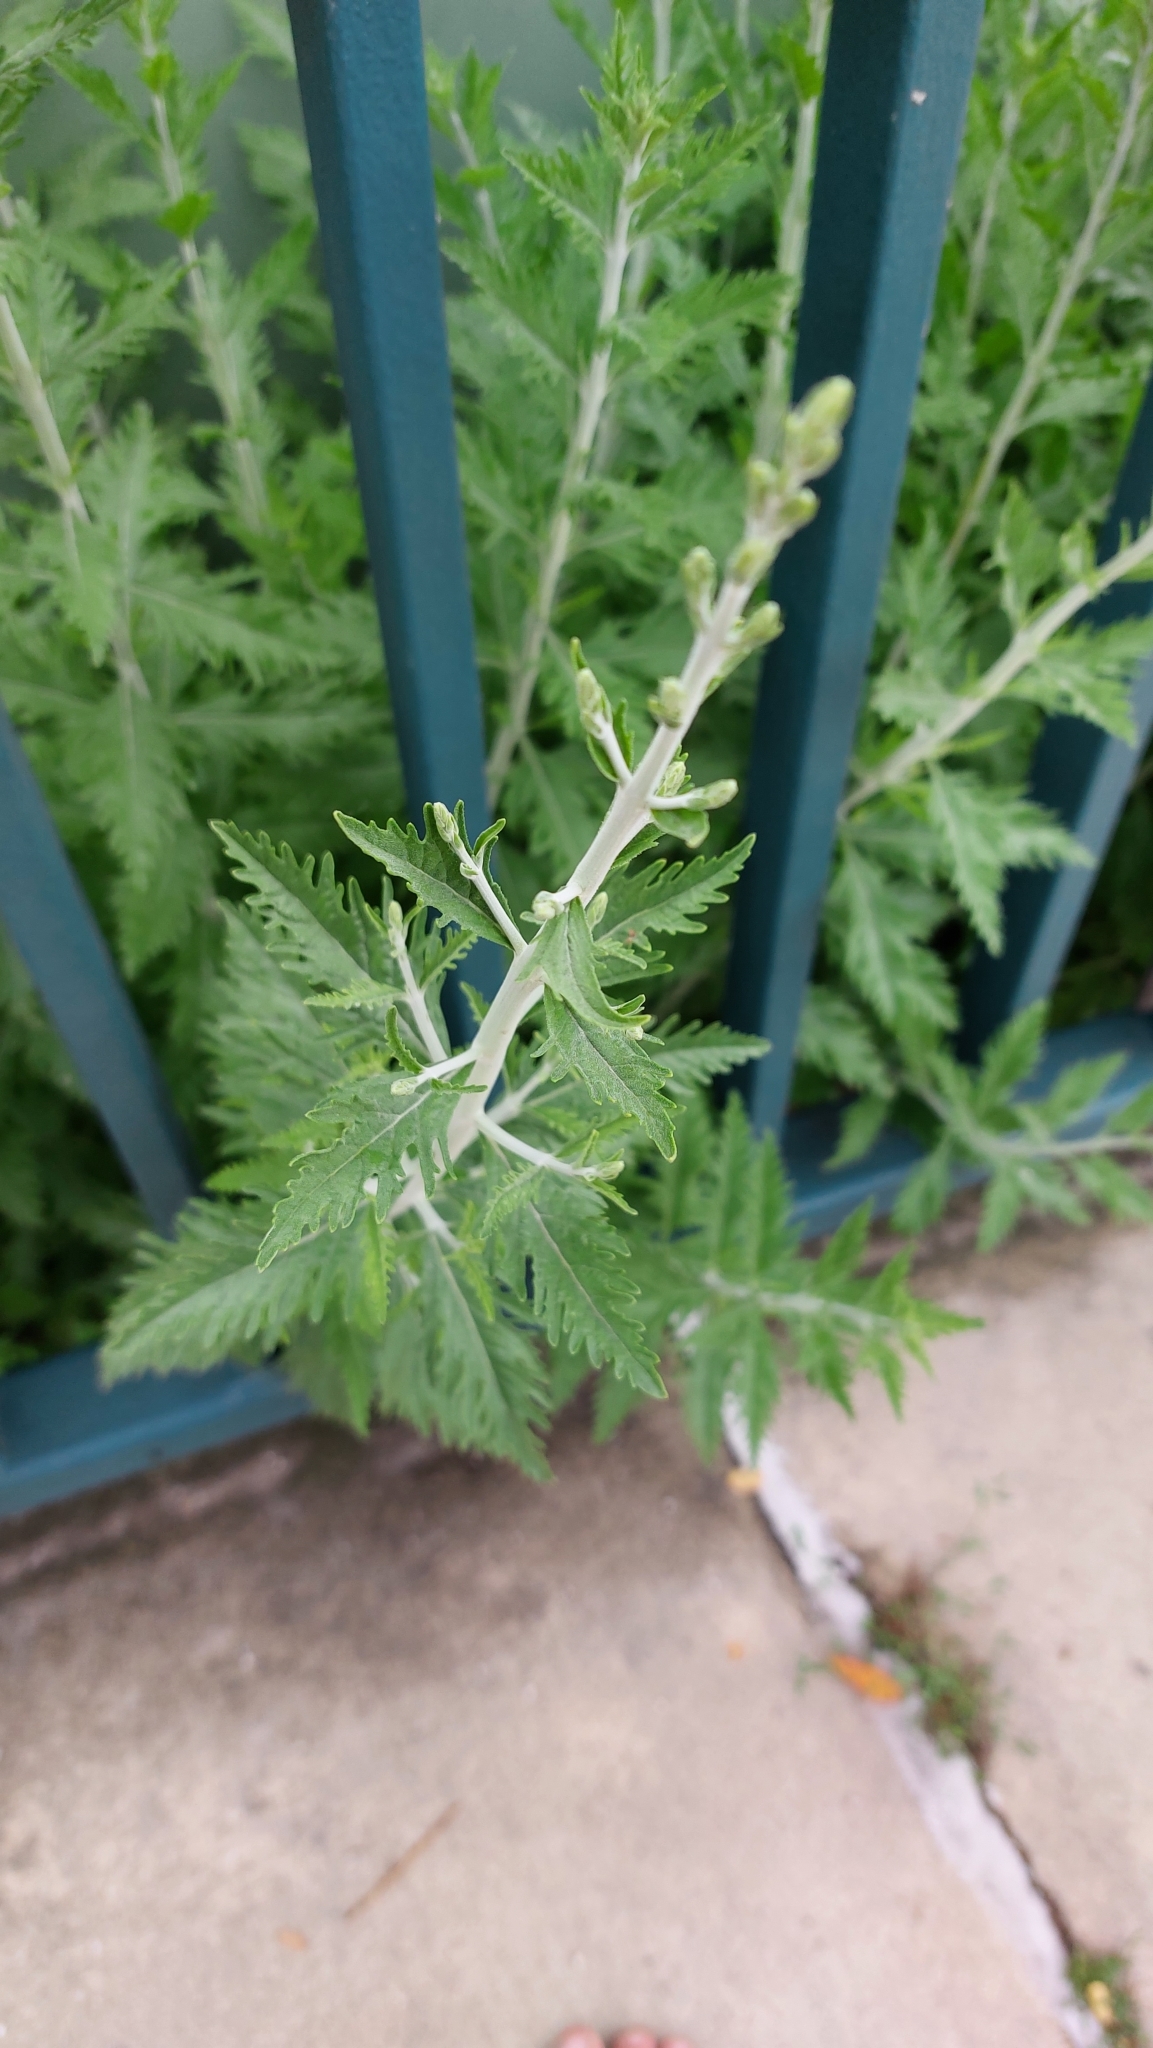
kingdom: Plantae
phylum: Tracheophyta
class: Magnoliopsida
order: Lamiales
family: Lamiaceae
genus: Salvia
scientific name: Salvia
